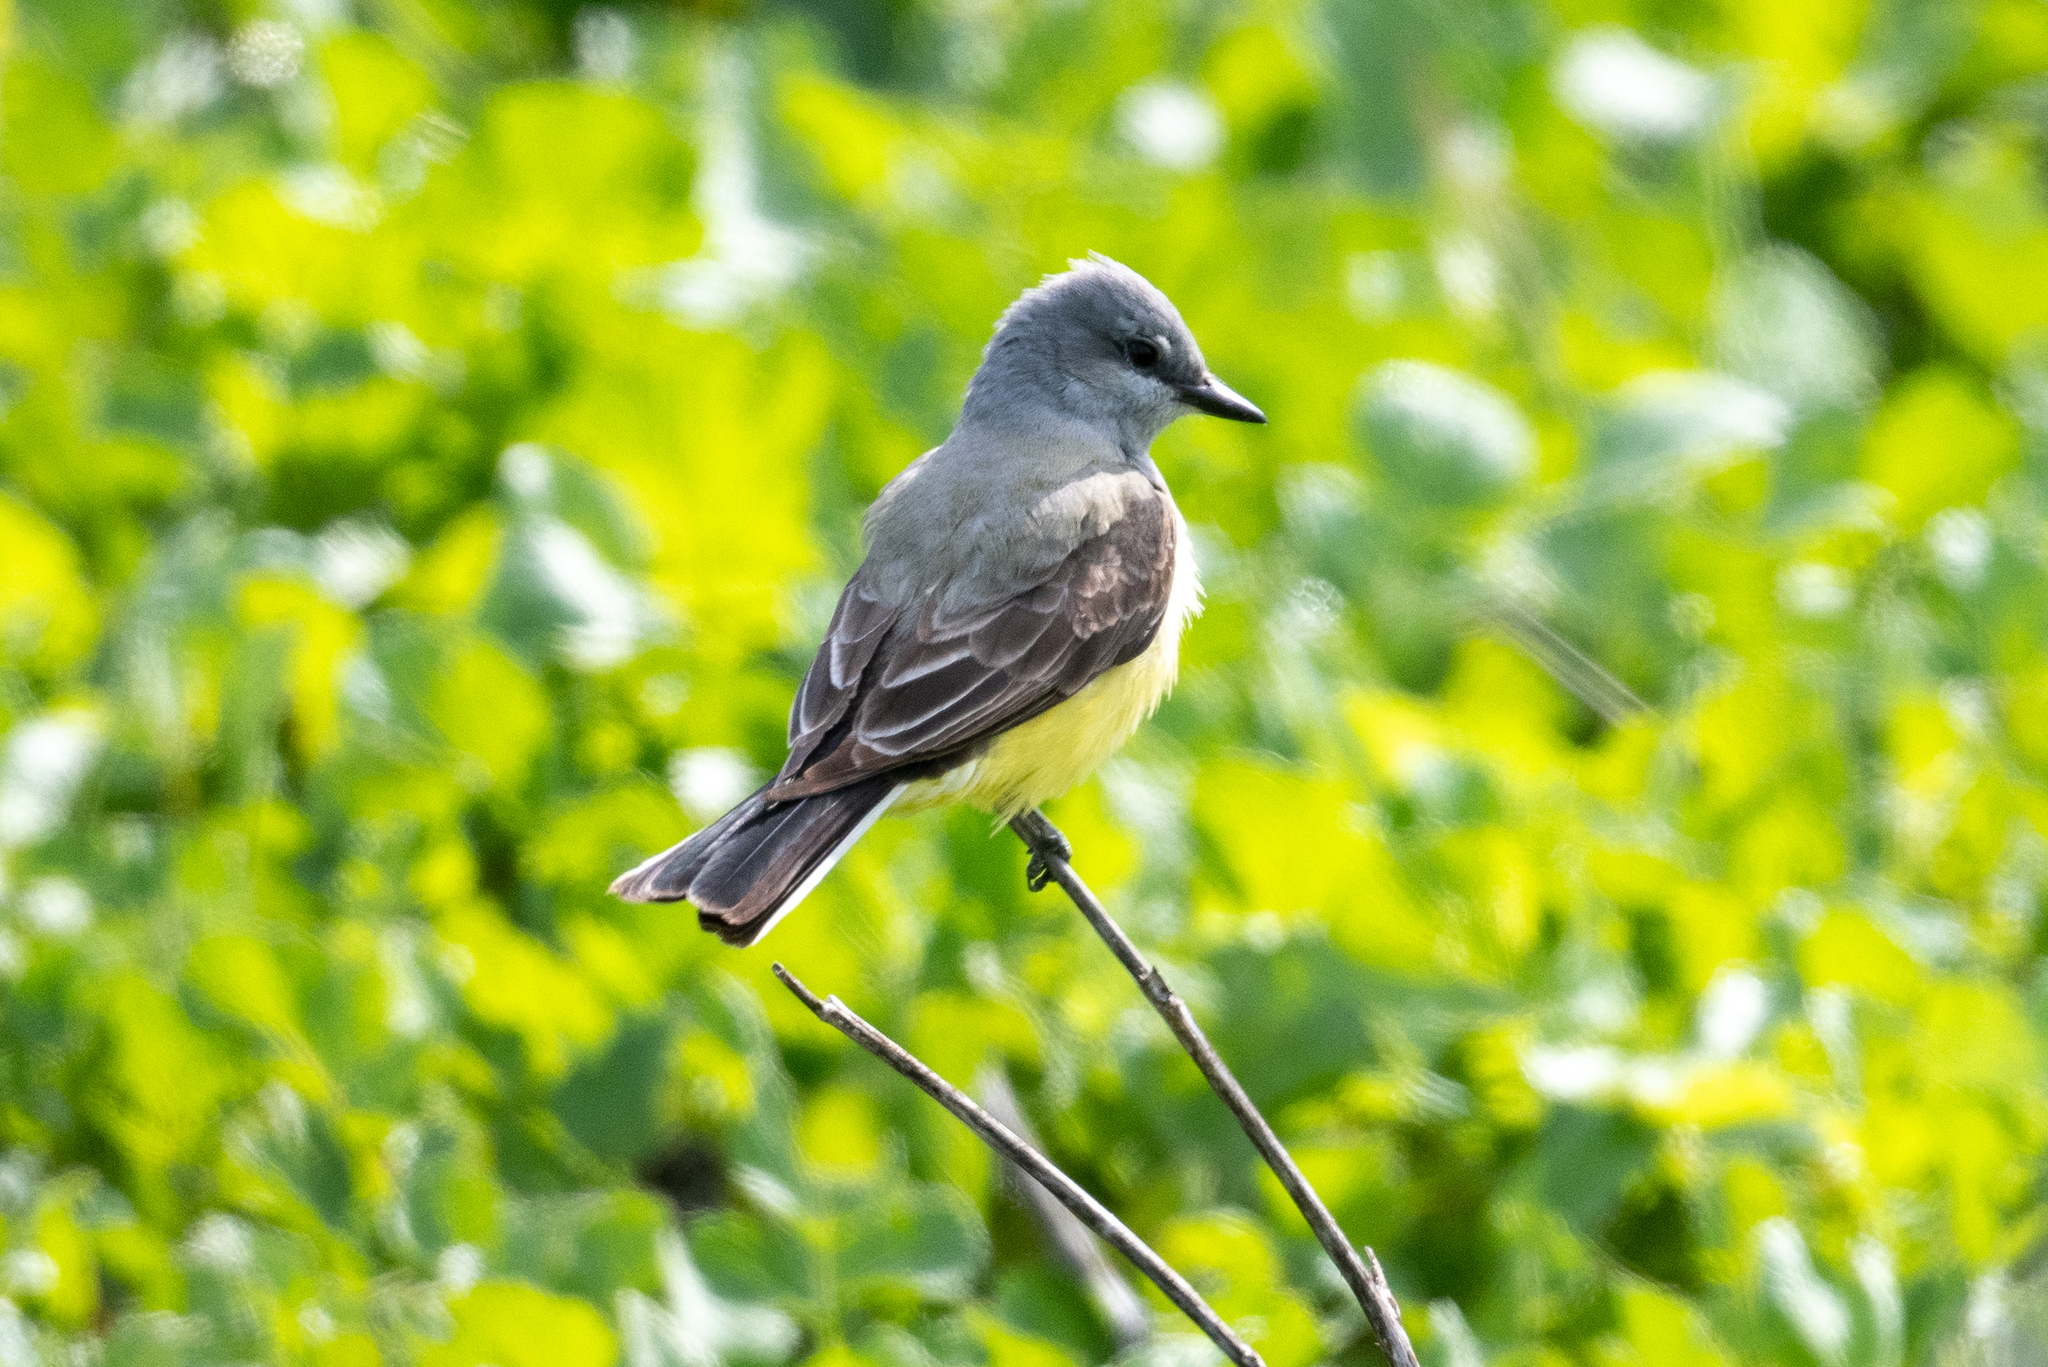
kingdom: Animalia
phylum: Chordata
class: Aves
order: Passeriformes
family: Tyrannidae
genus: Tyrannus
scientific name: Tyrannus verticalis
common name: Western kingbird
